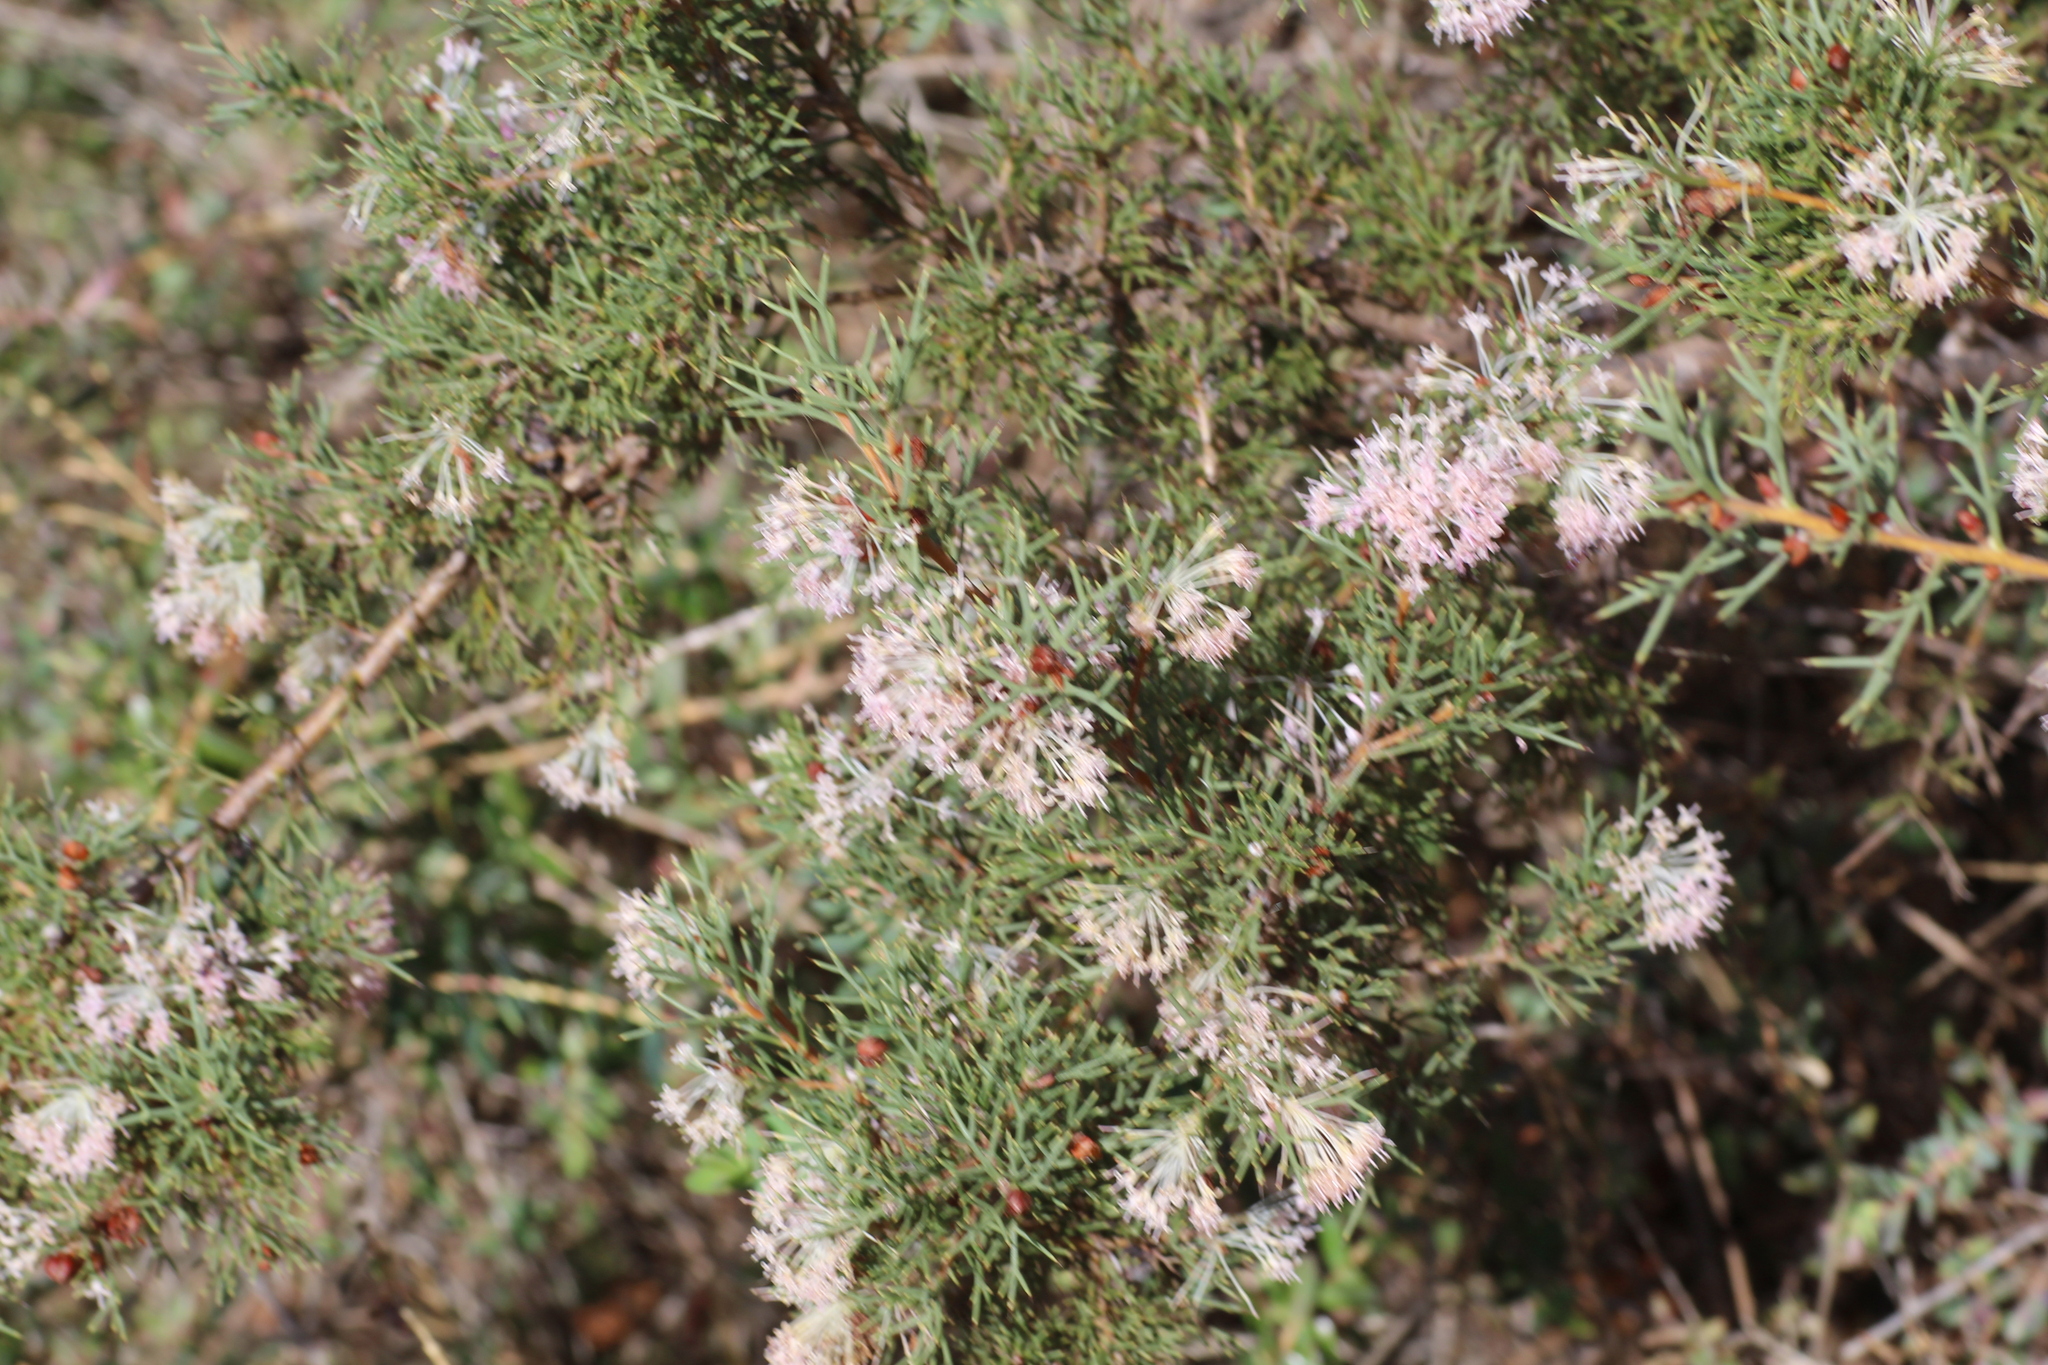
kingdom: Plantae
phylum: Tracheophyta
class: Magnoliopsida
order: Proteales
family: Proteaceae
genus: Hakea
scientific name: Hakea lissocarpha
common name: Honey bush
